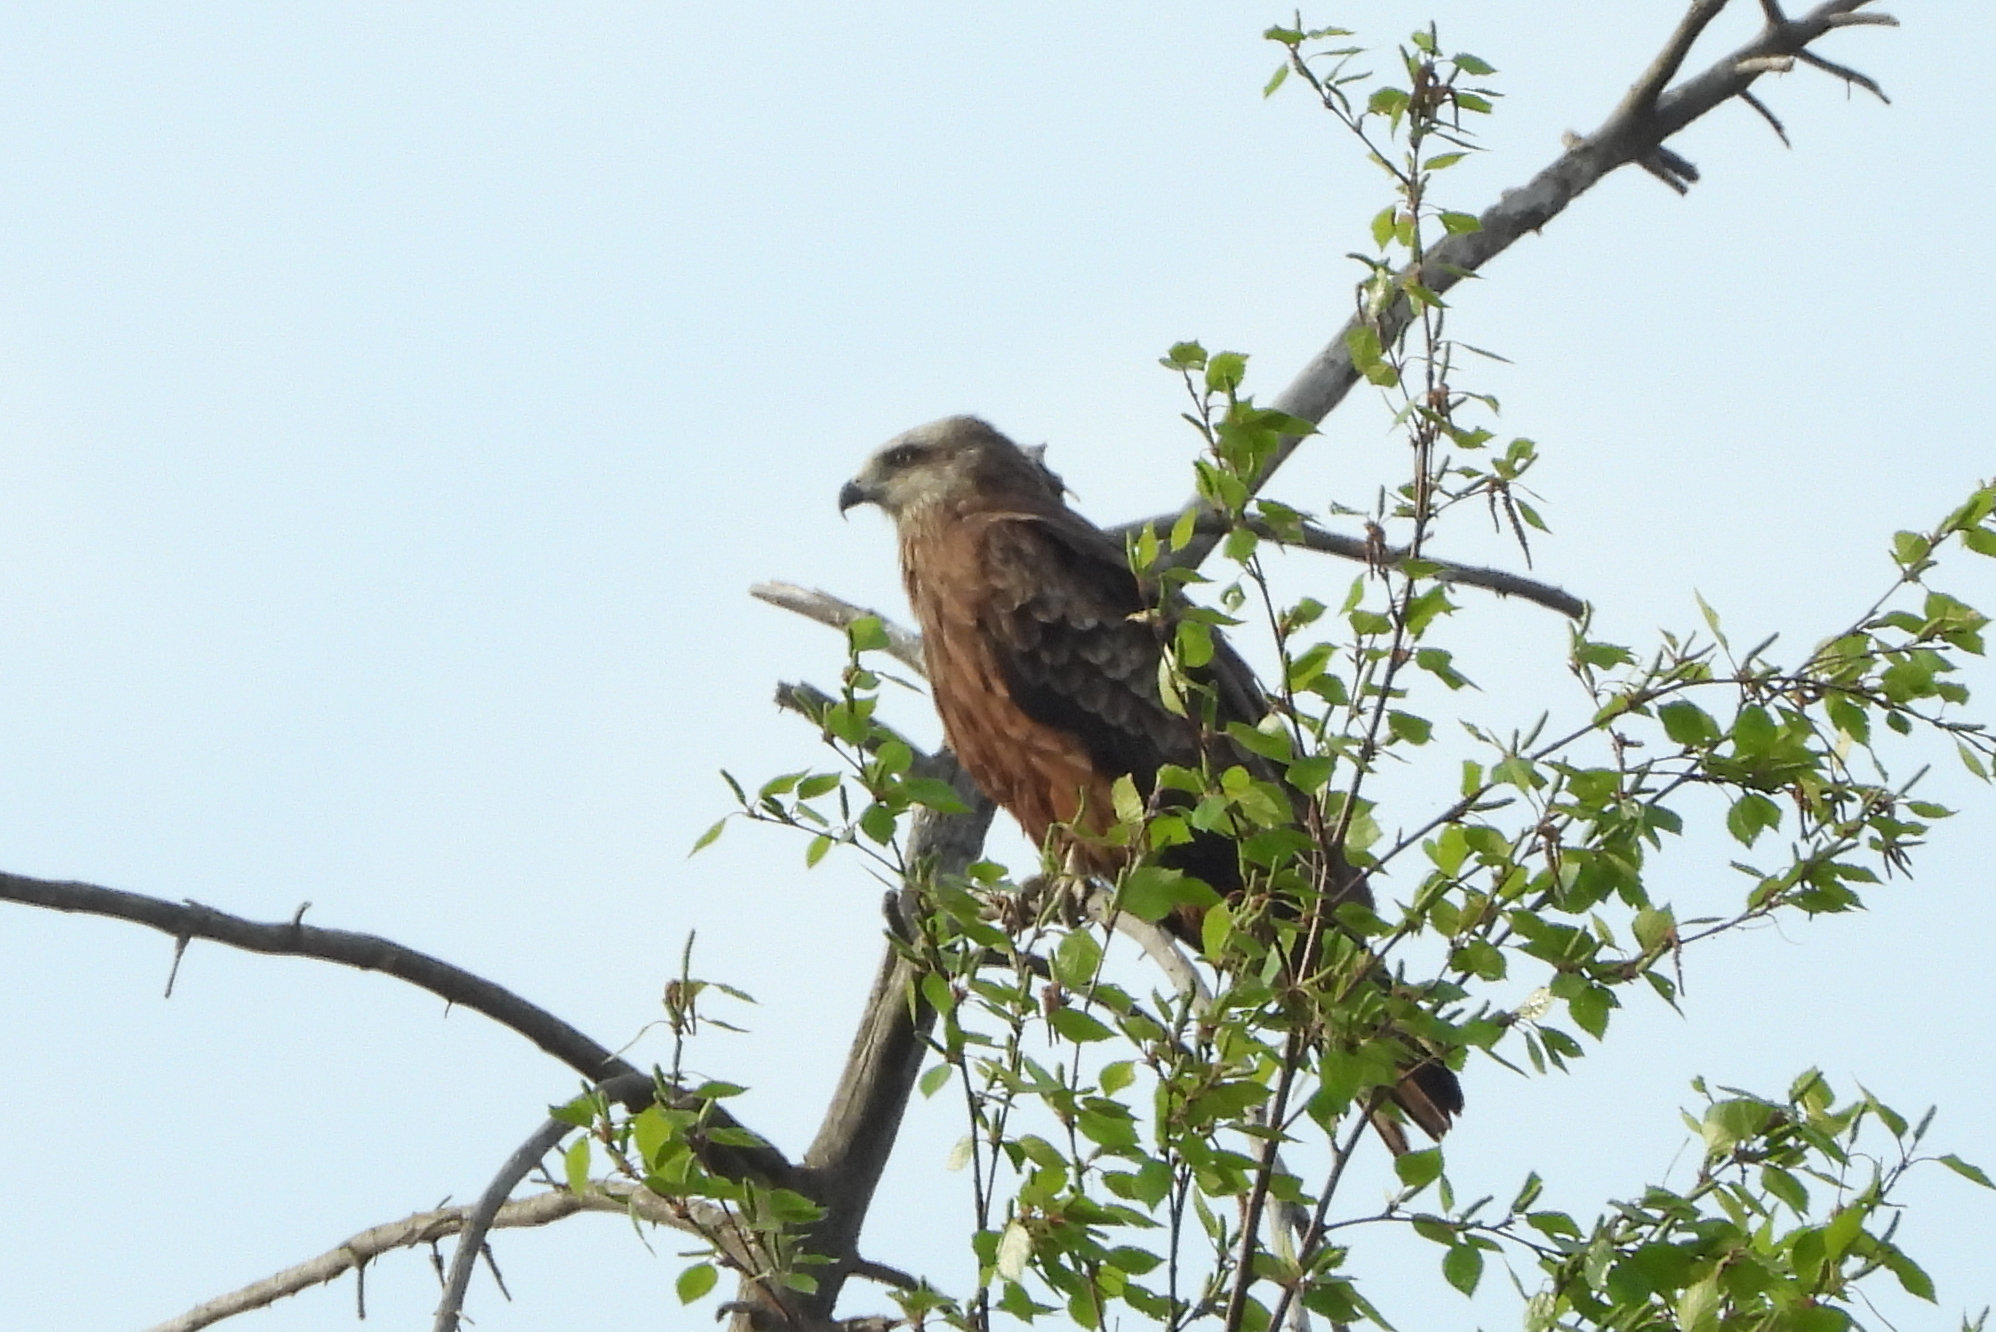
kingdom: Animalia
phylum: Chordata
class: Aves
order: Accipitriformes
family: Accipitridae
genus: Milvus
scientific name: Milvus migrans
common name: Black kite
